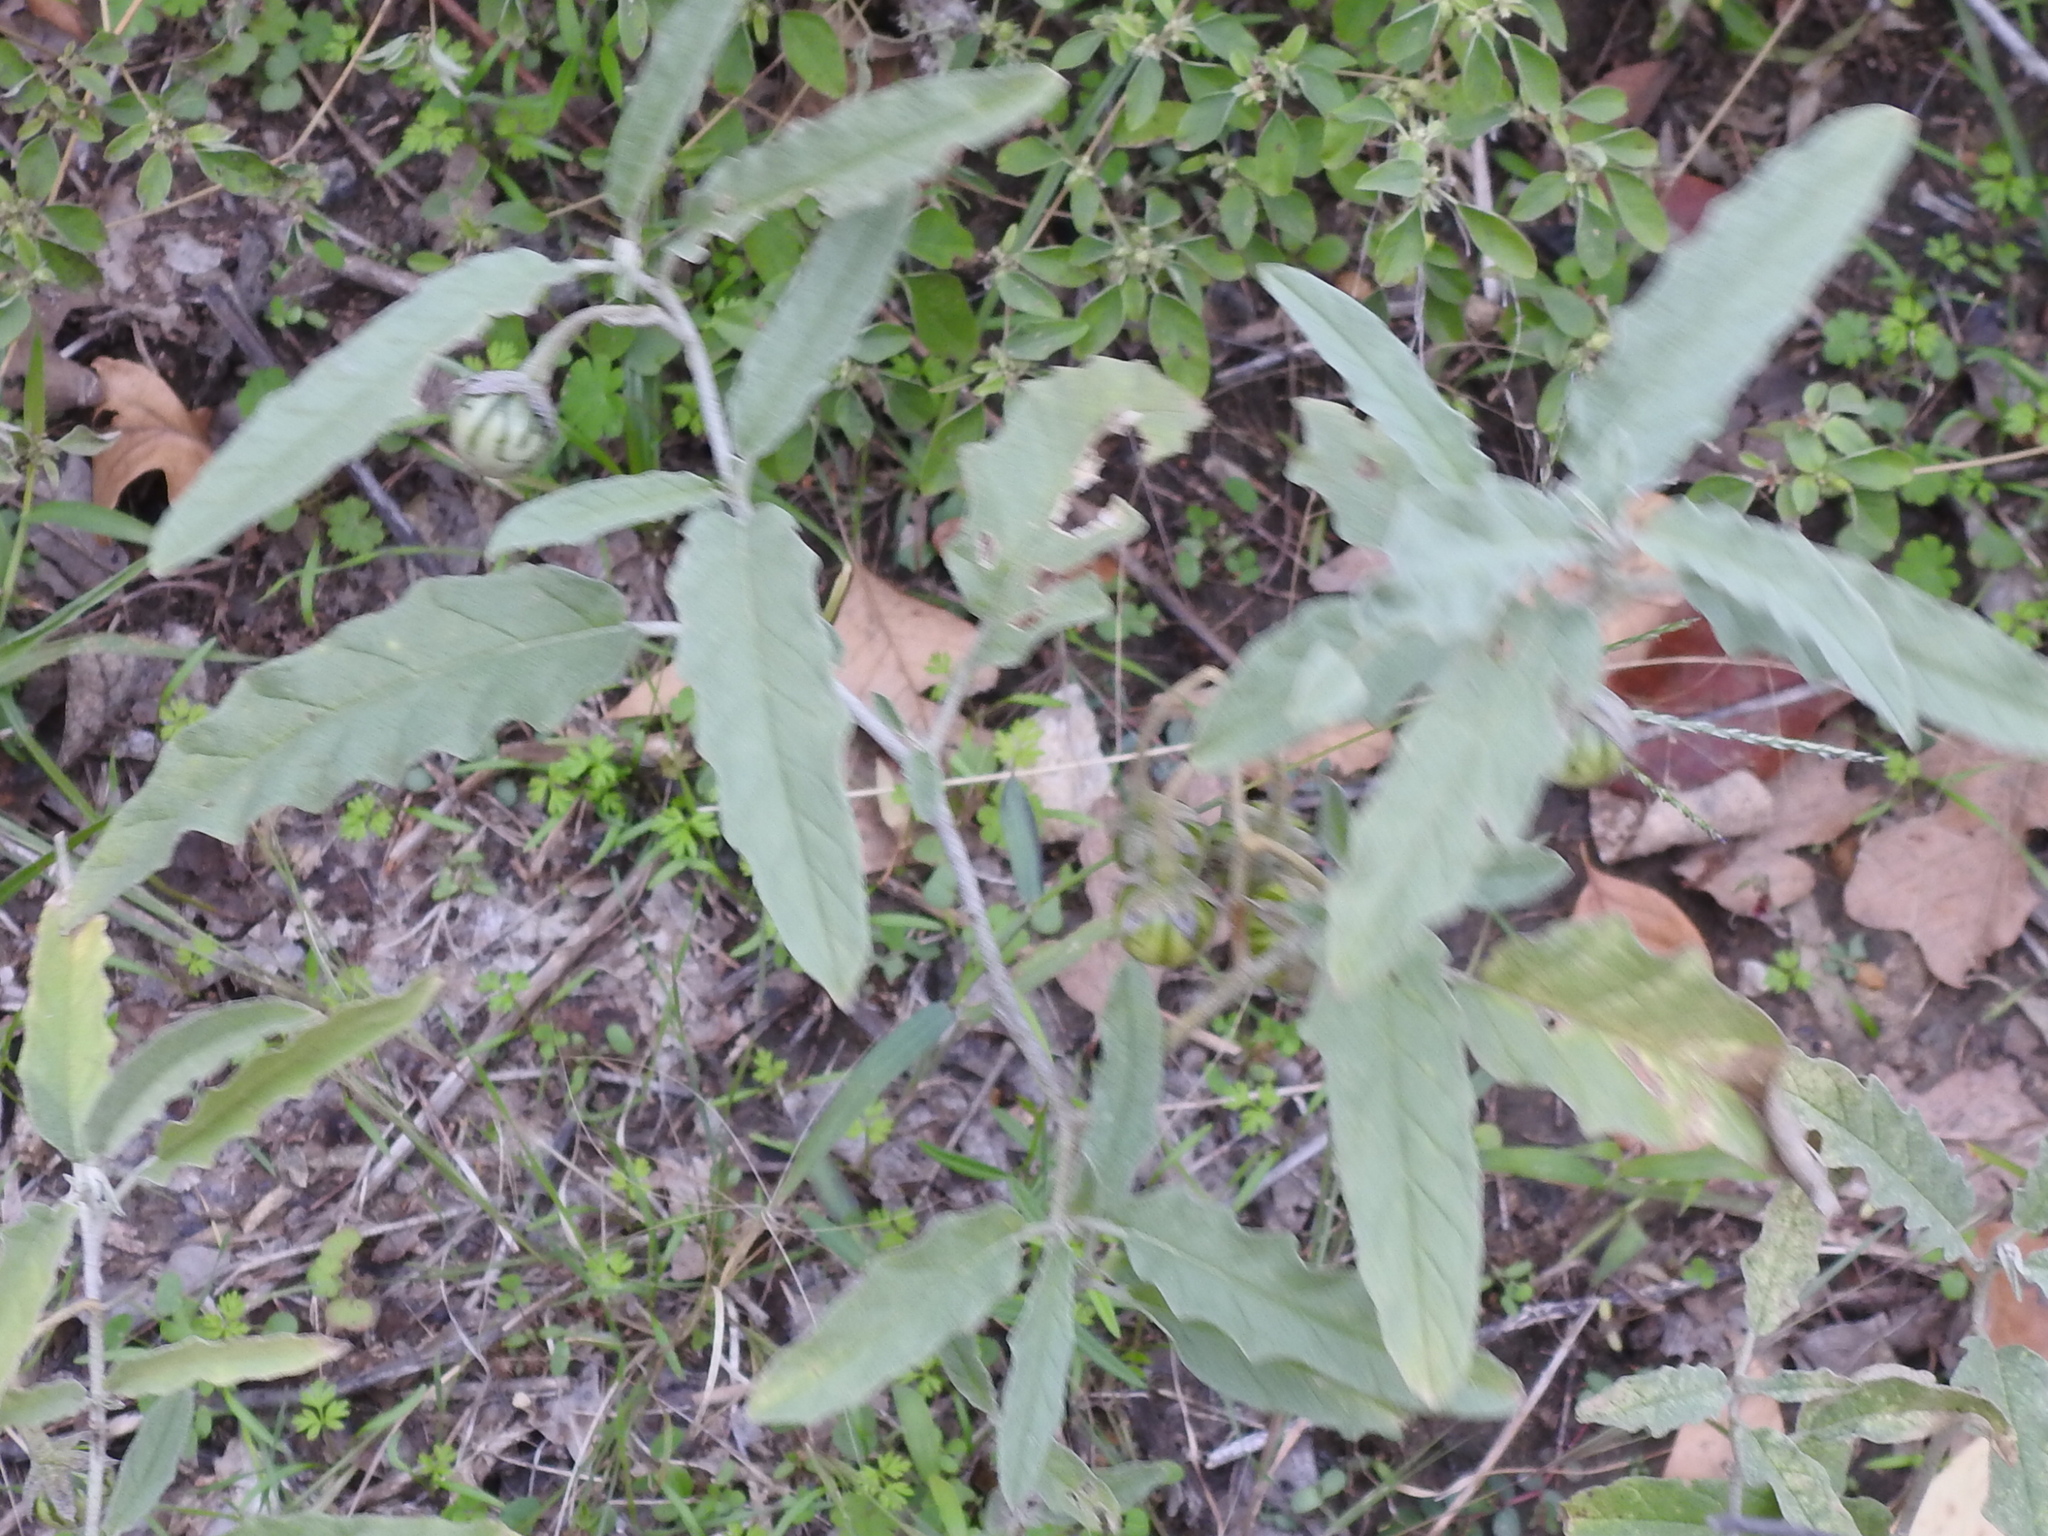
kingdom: Plantae
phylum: Tracheophyta
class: Magnoliopsida
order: Solanales
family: Solanaceae
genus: Solanum
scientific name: Solanum elaeagnifolium
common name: Silverleaf nightshade
